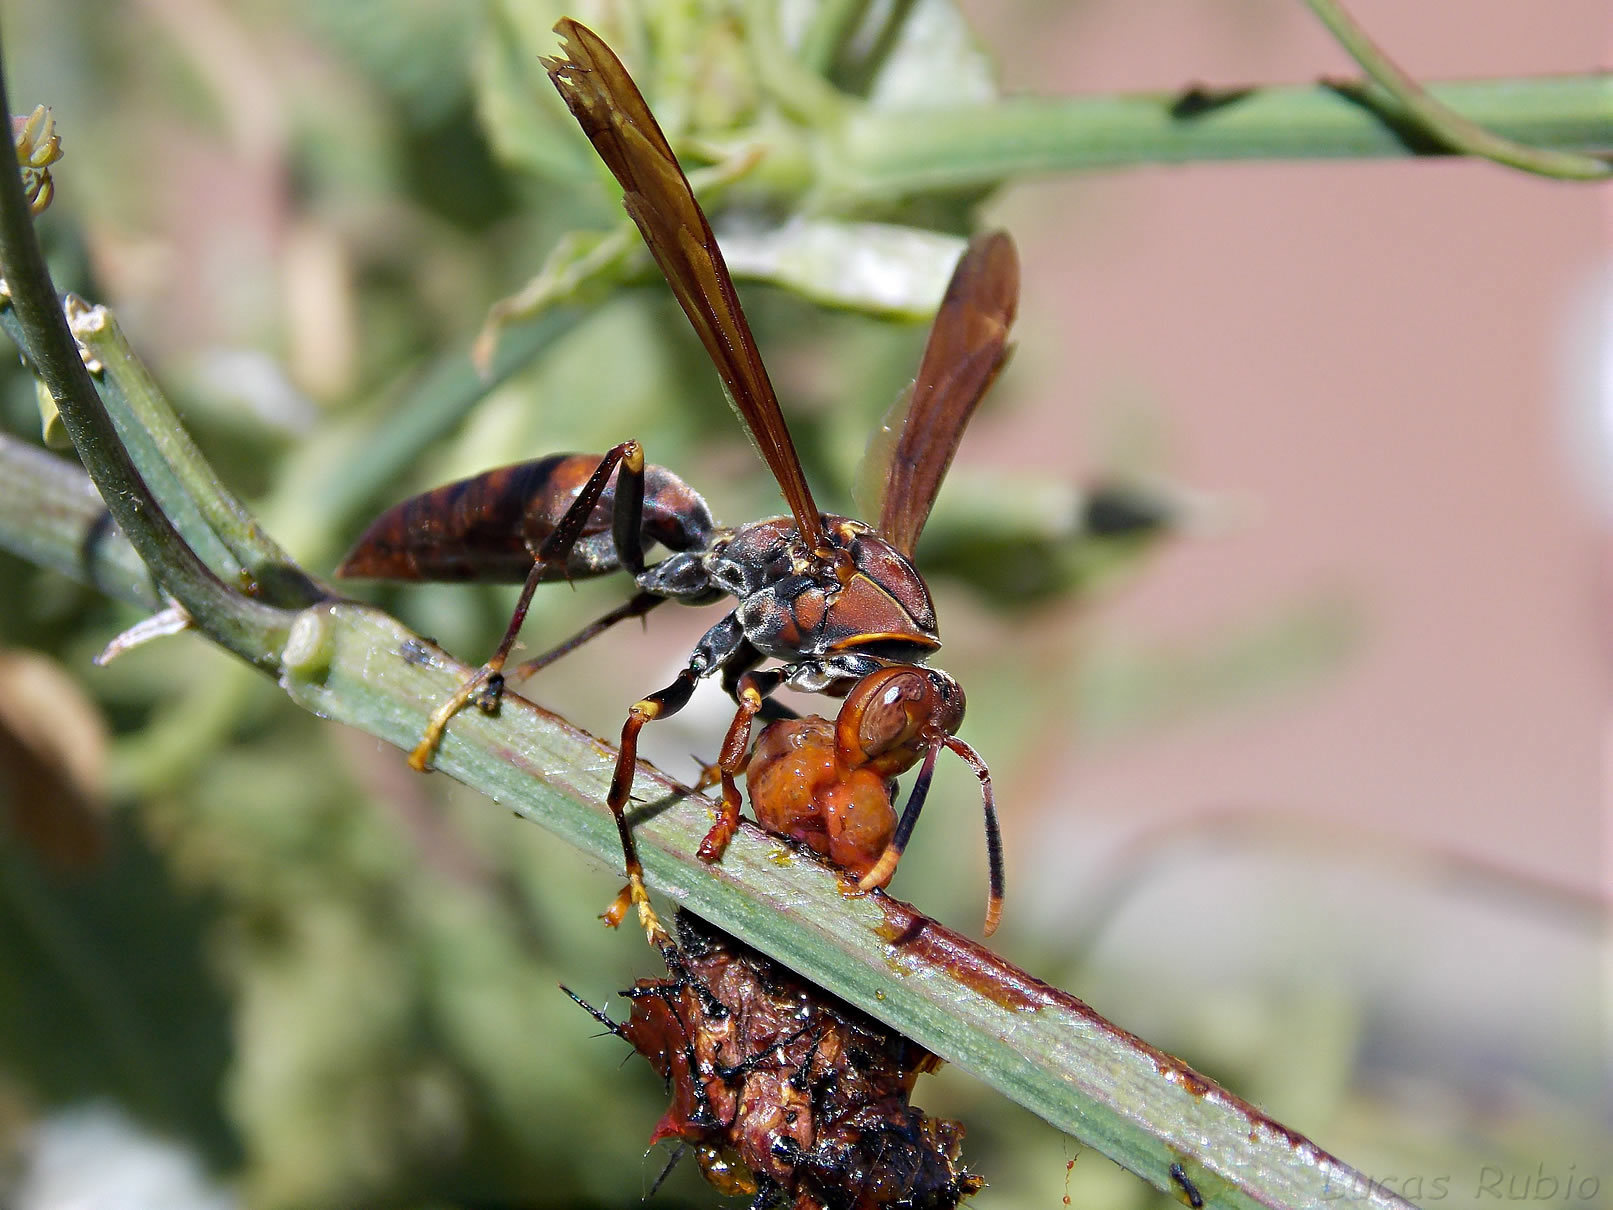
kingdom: Animalia
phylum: Arthropoda
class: Insecta
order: Hymenoptera
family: Pompilidae
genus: Aphanilopterus
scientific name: Aphanilopterus
